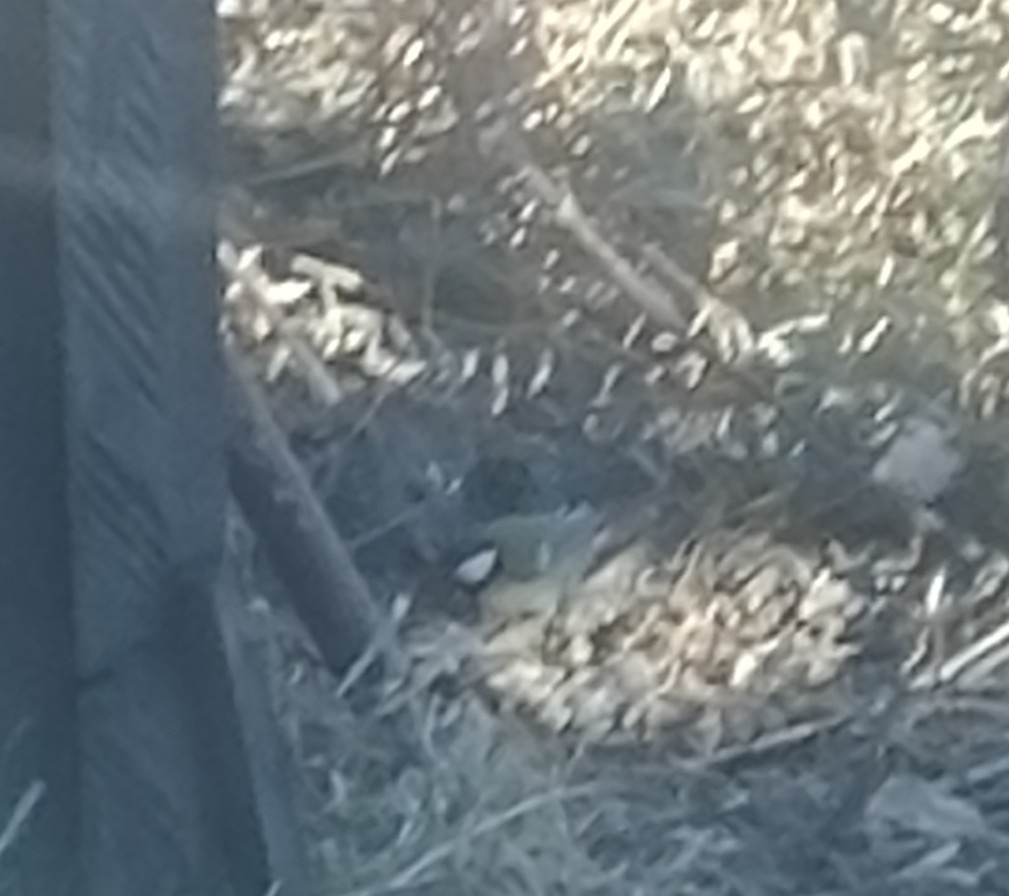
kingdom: Animalia
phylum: Chordata
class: Aves
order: Passeriformes
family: Paridae
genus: Parus
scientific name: Parus major
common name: Great tit
